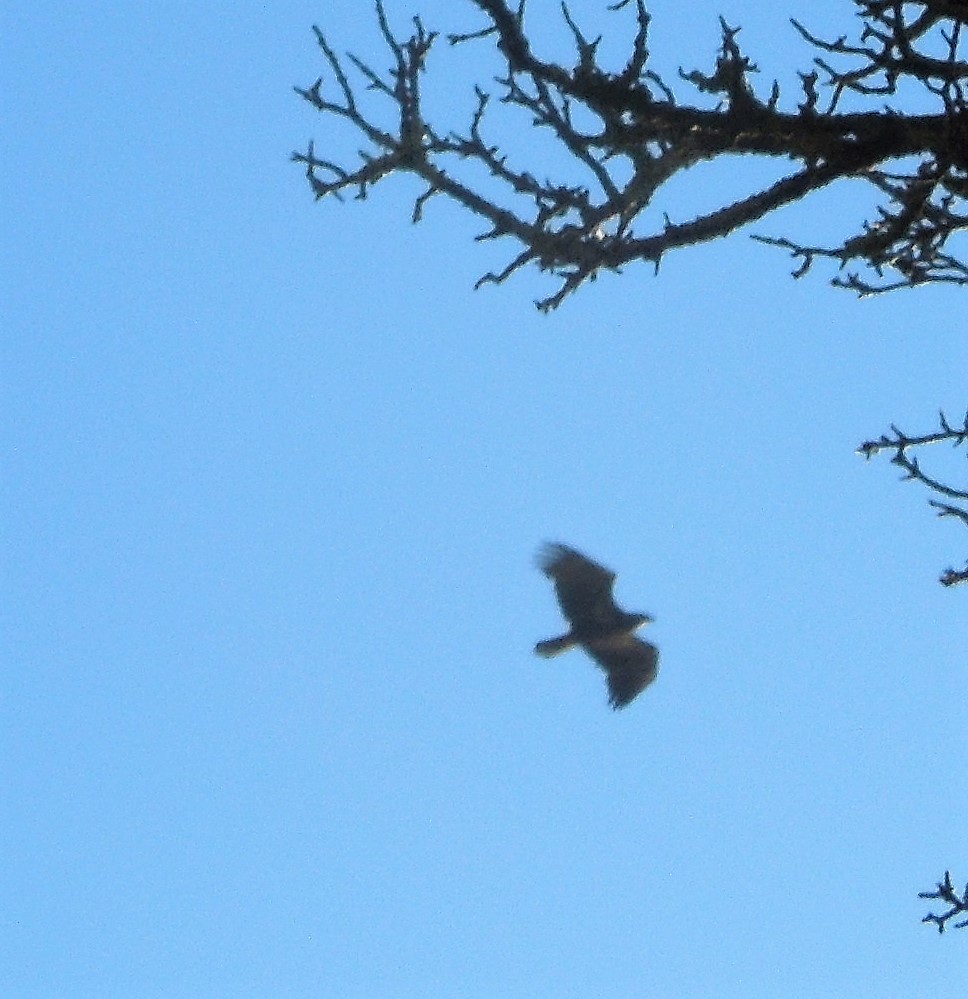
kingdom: Animalia
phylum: Chordata
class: Aves
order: Accipitriformes
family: Accipitridae
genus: Haliaeetus
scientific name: Haliaeetus leucocephalus
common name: Bald eagle
